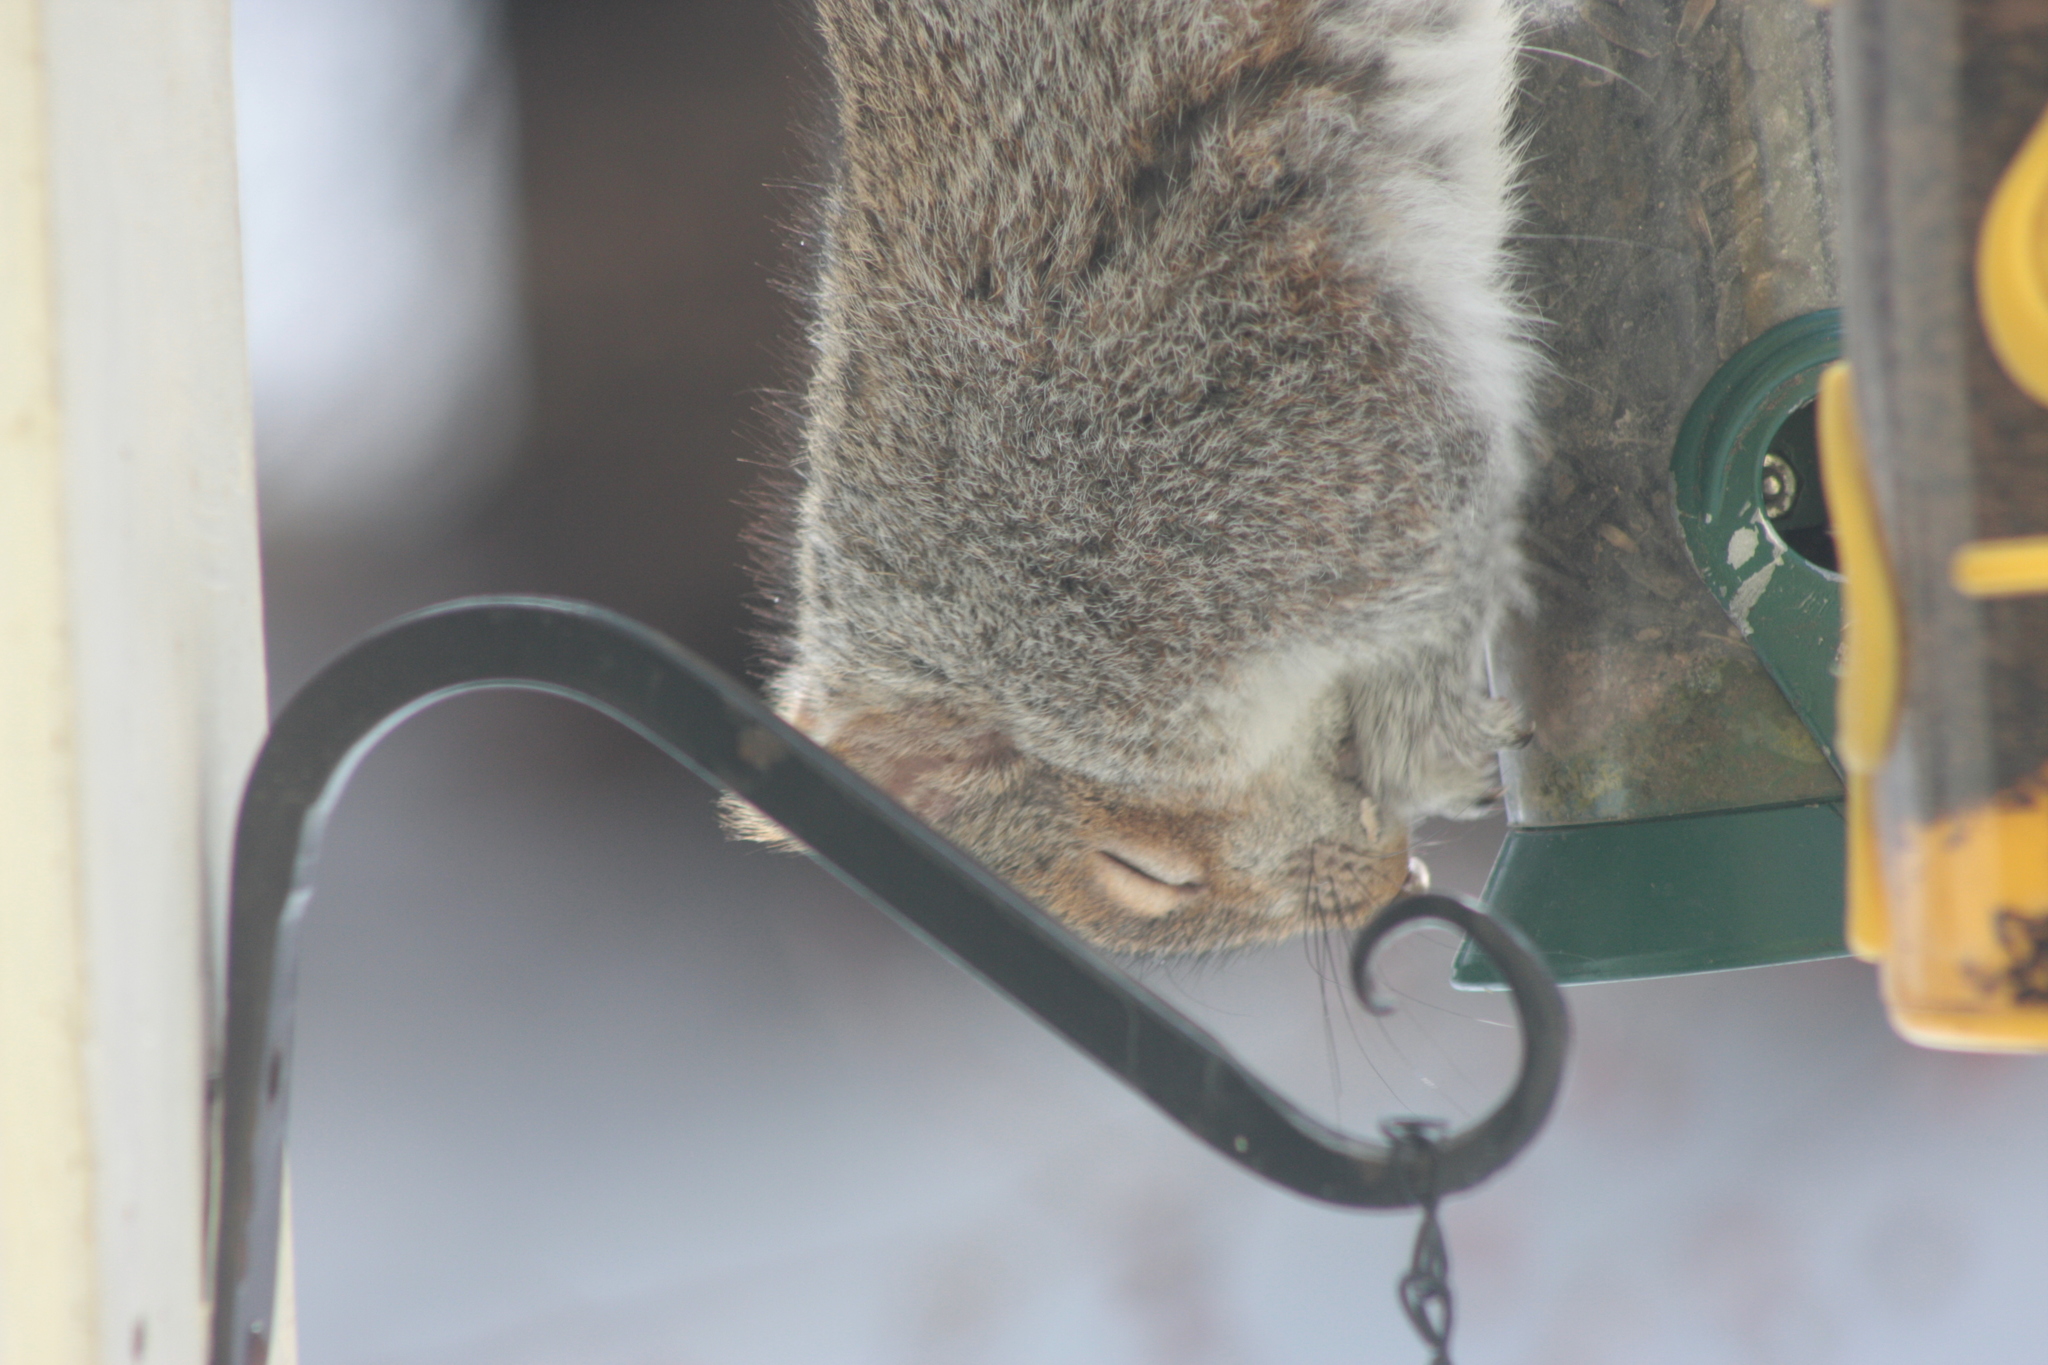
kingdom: Animalia
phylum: Chordata
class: Mammalia
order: Rodentia
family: Sciuridae
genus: Sciurus
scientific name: Sciurus carolinensis
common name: Eastern gray squirrel
